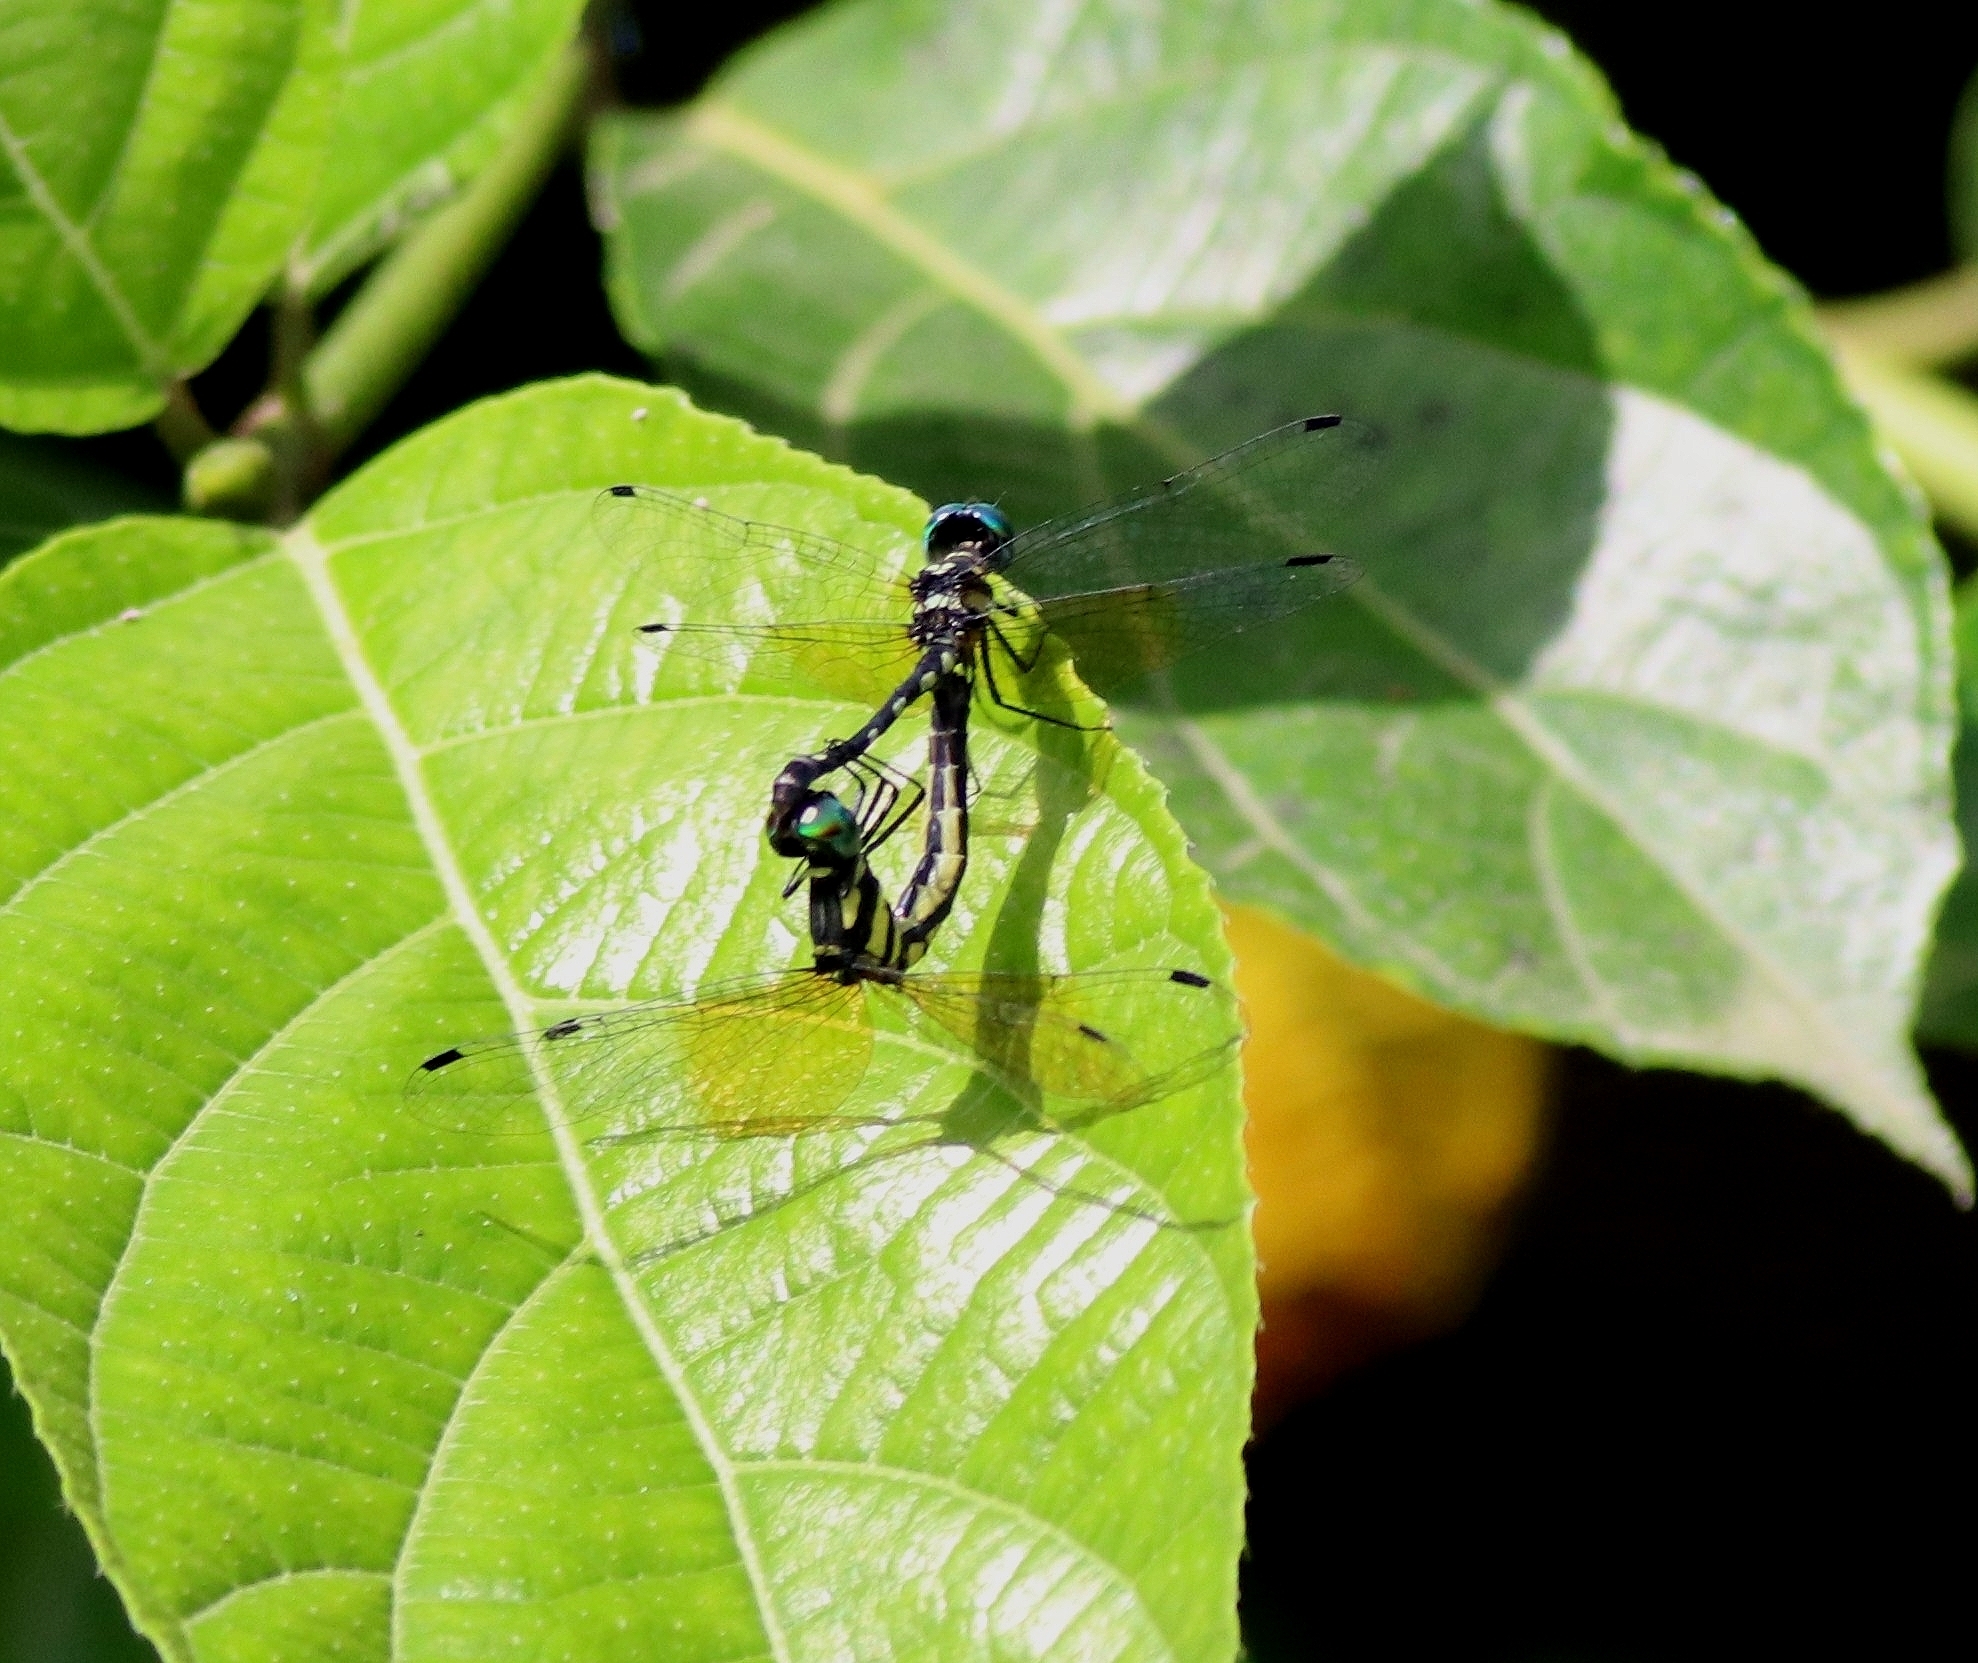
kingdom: Animalia
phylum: Arthropoda
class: Insecta
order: Odonata
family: Libellulidae
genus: Tetrathemis
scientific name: Tetrathemis platyptera
